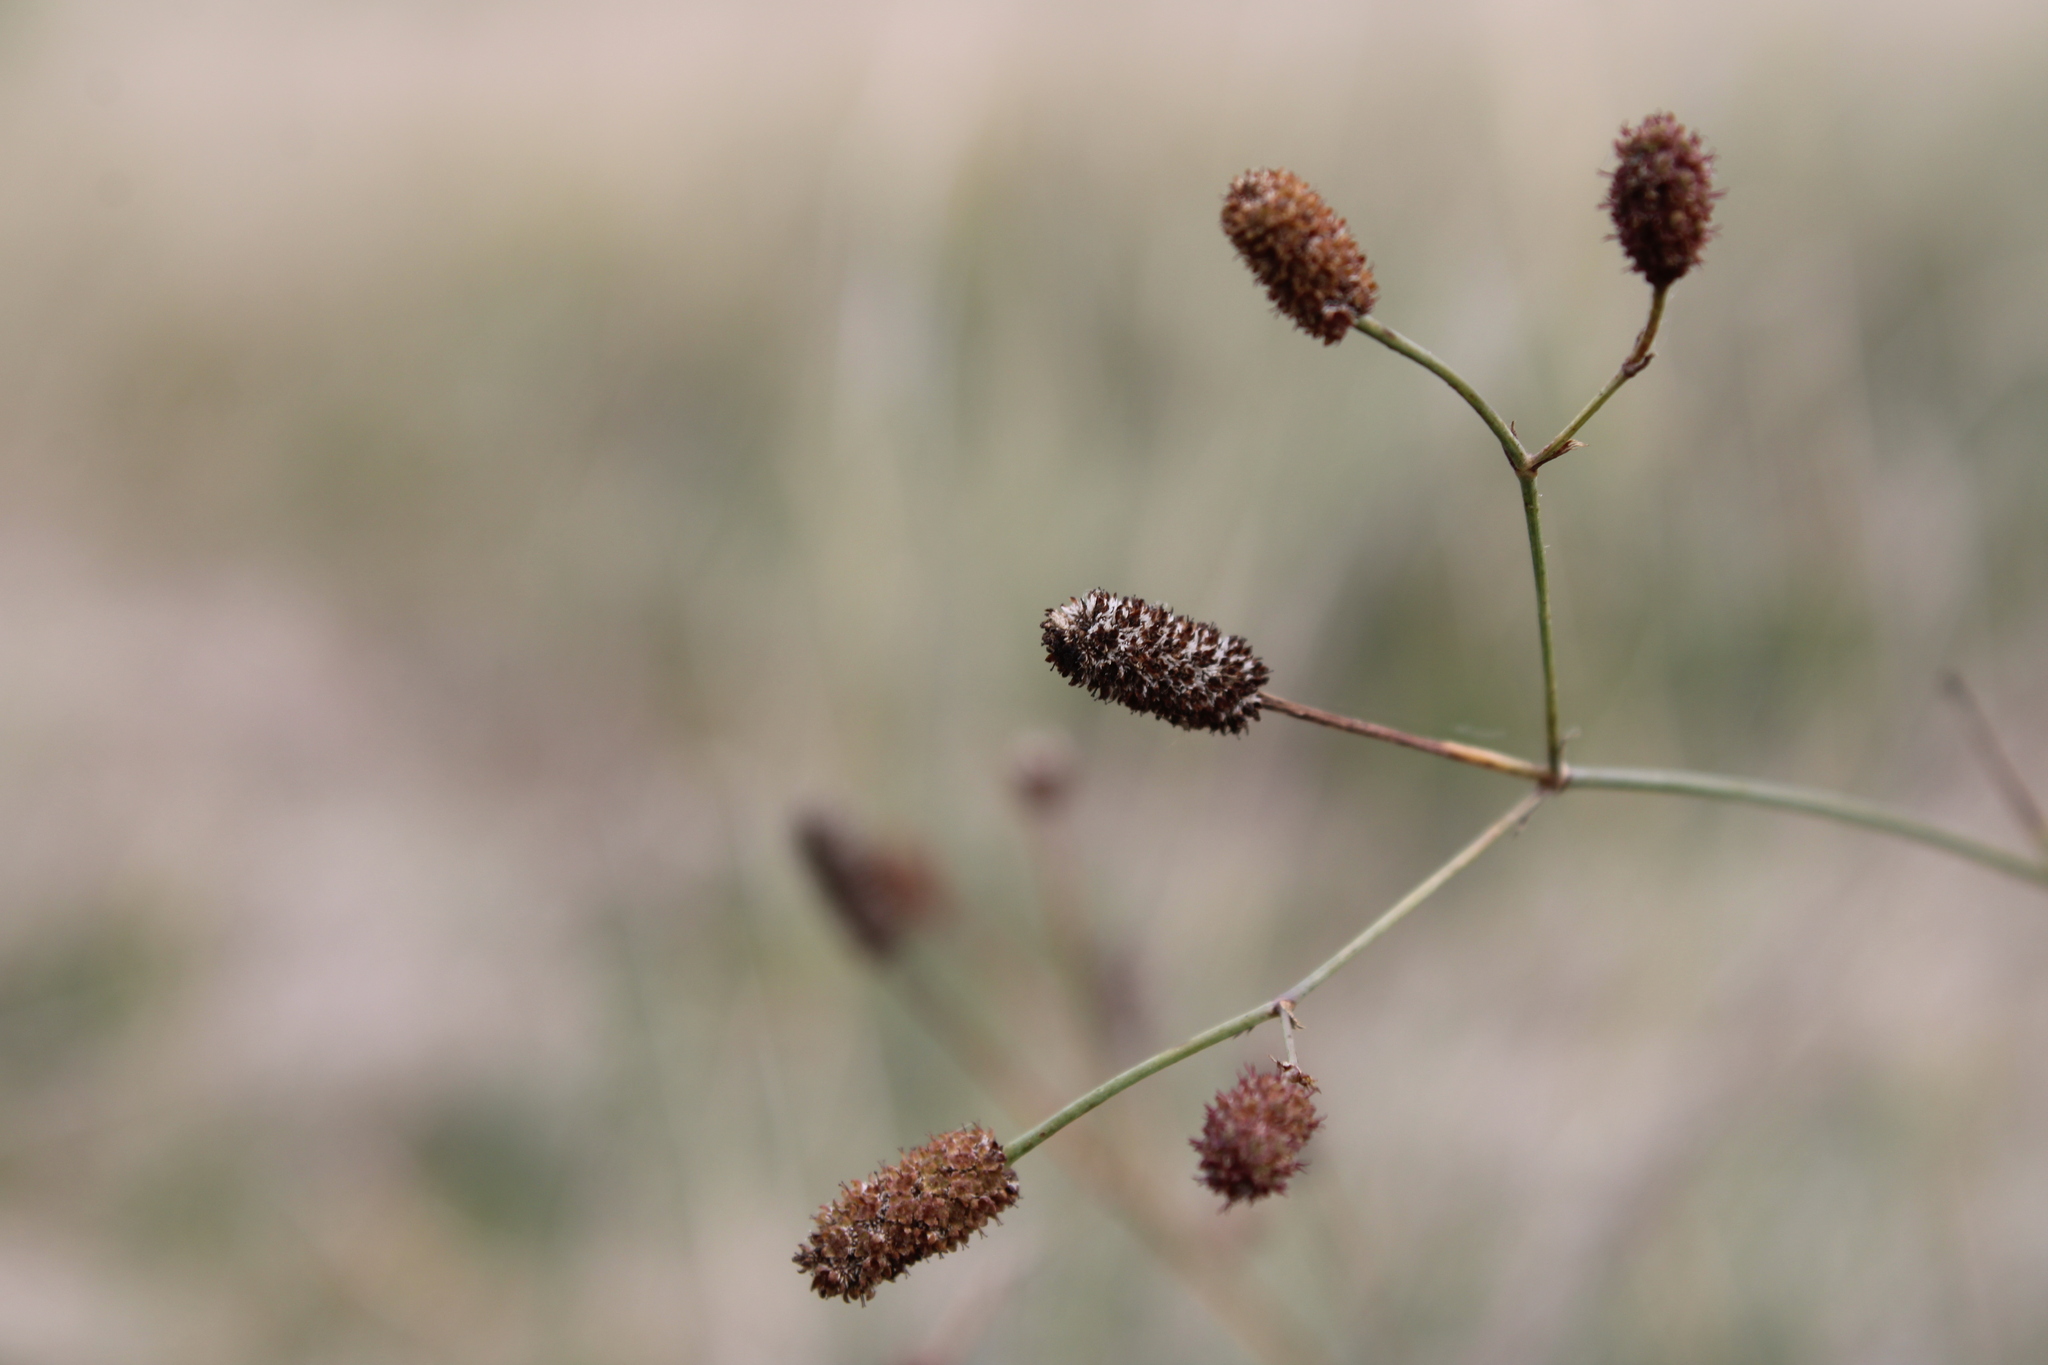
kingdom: Plantae
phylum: Tracheophyta
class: Magnoliopsida
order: Apiales
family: Apiaceae
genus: Eryngium
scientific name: Eryngium ebracteatum
